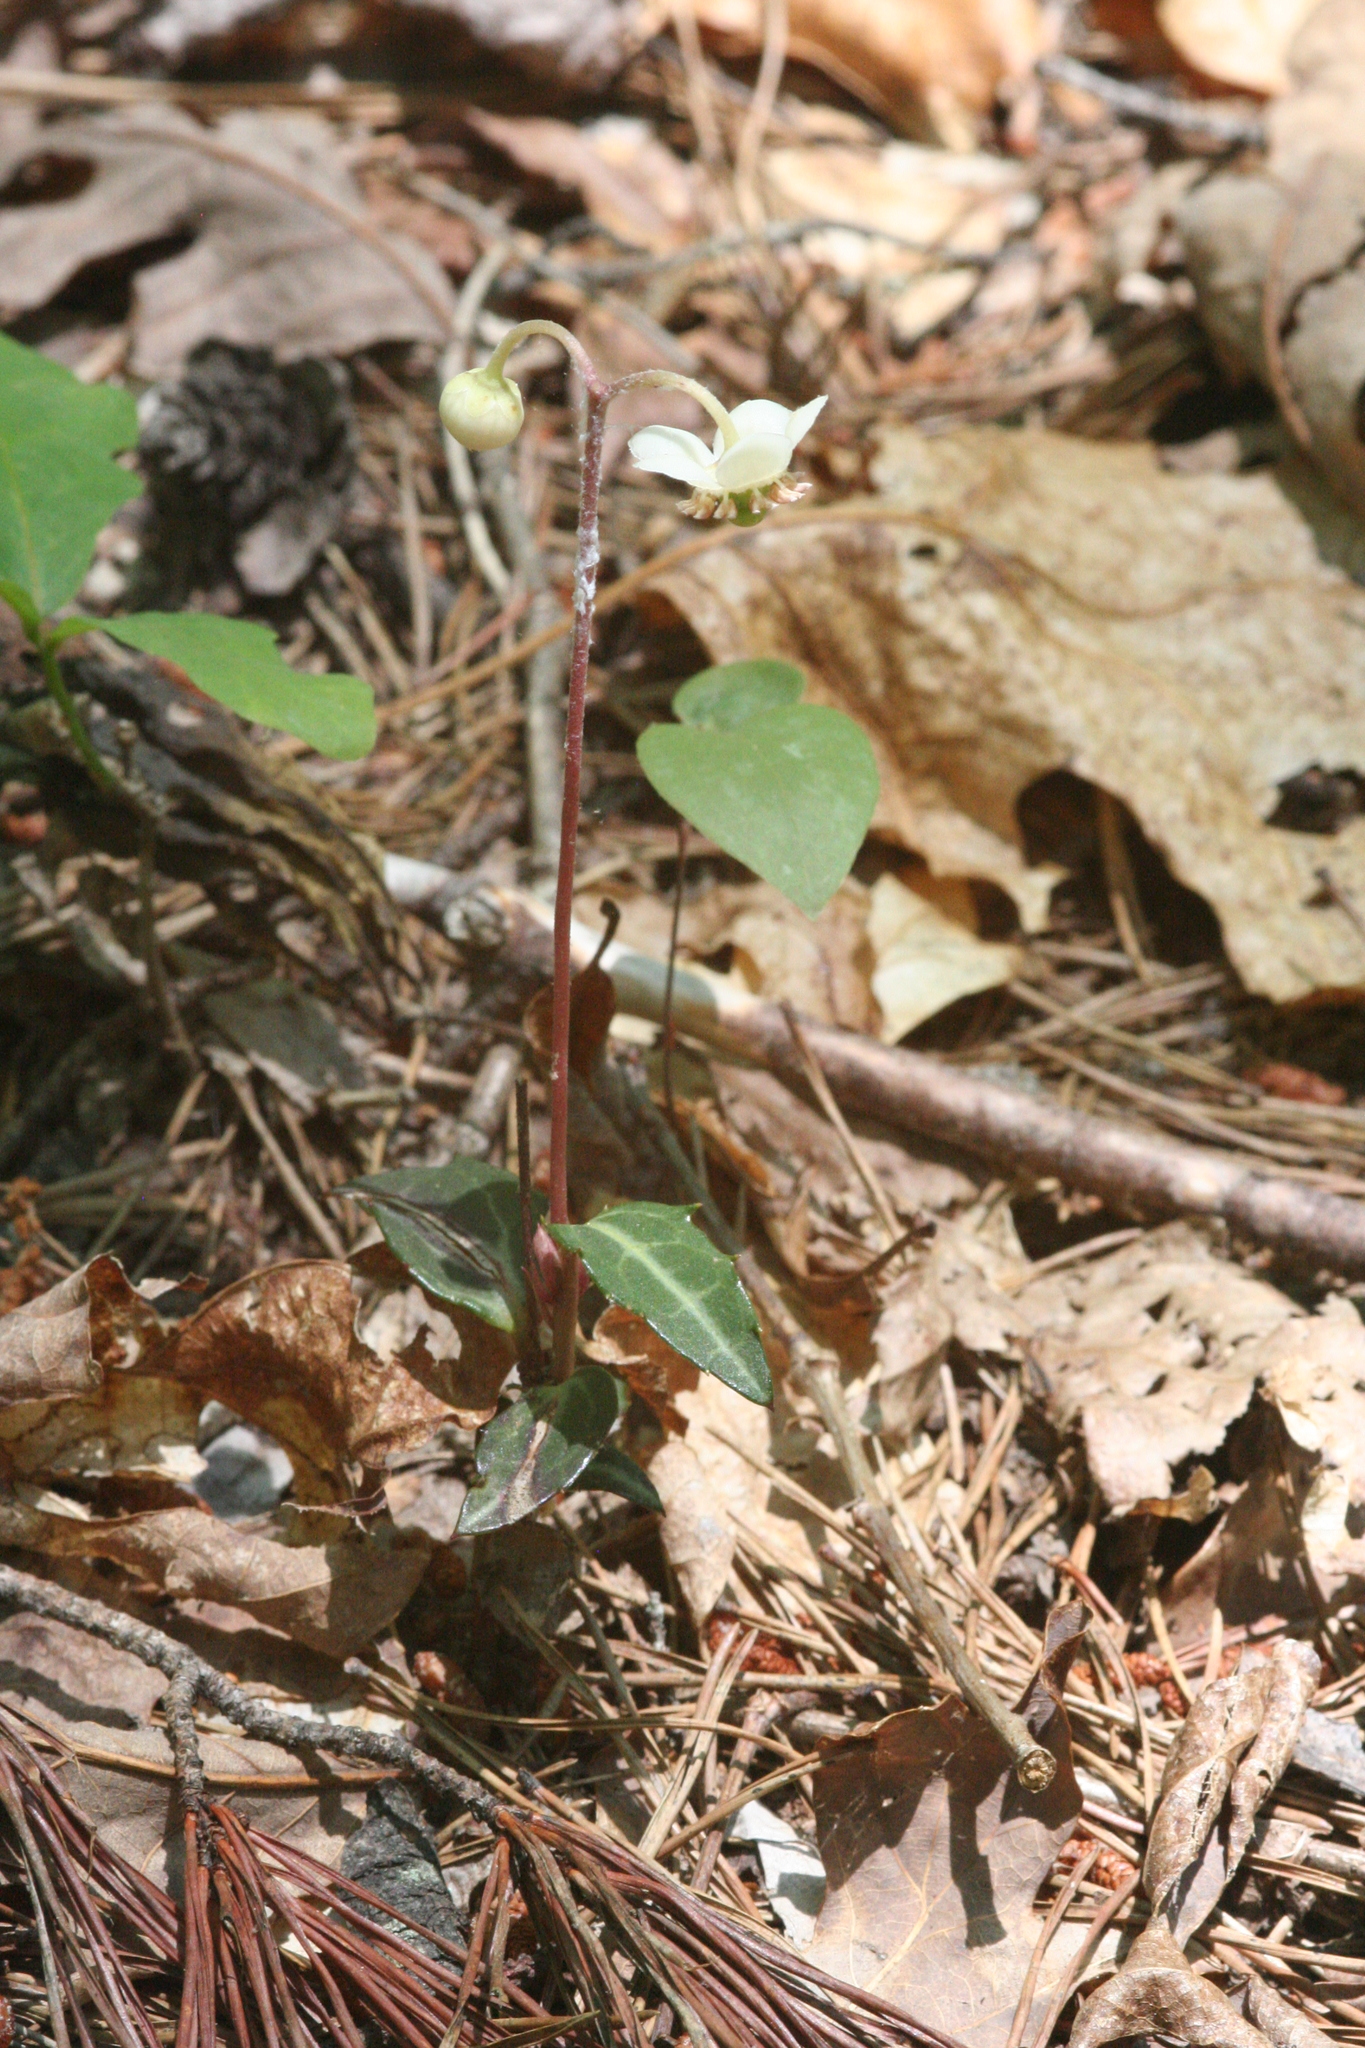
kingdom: Plantae
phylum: Tracheophyta
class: Magnoliopsida
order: Ericales
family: Ericaceae
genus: Chimaphila
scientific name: Chimaphila maculata
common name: Spotted pipsissewa
